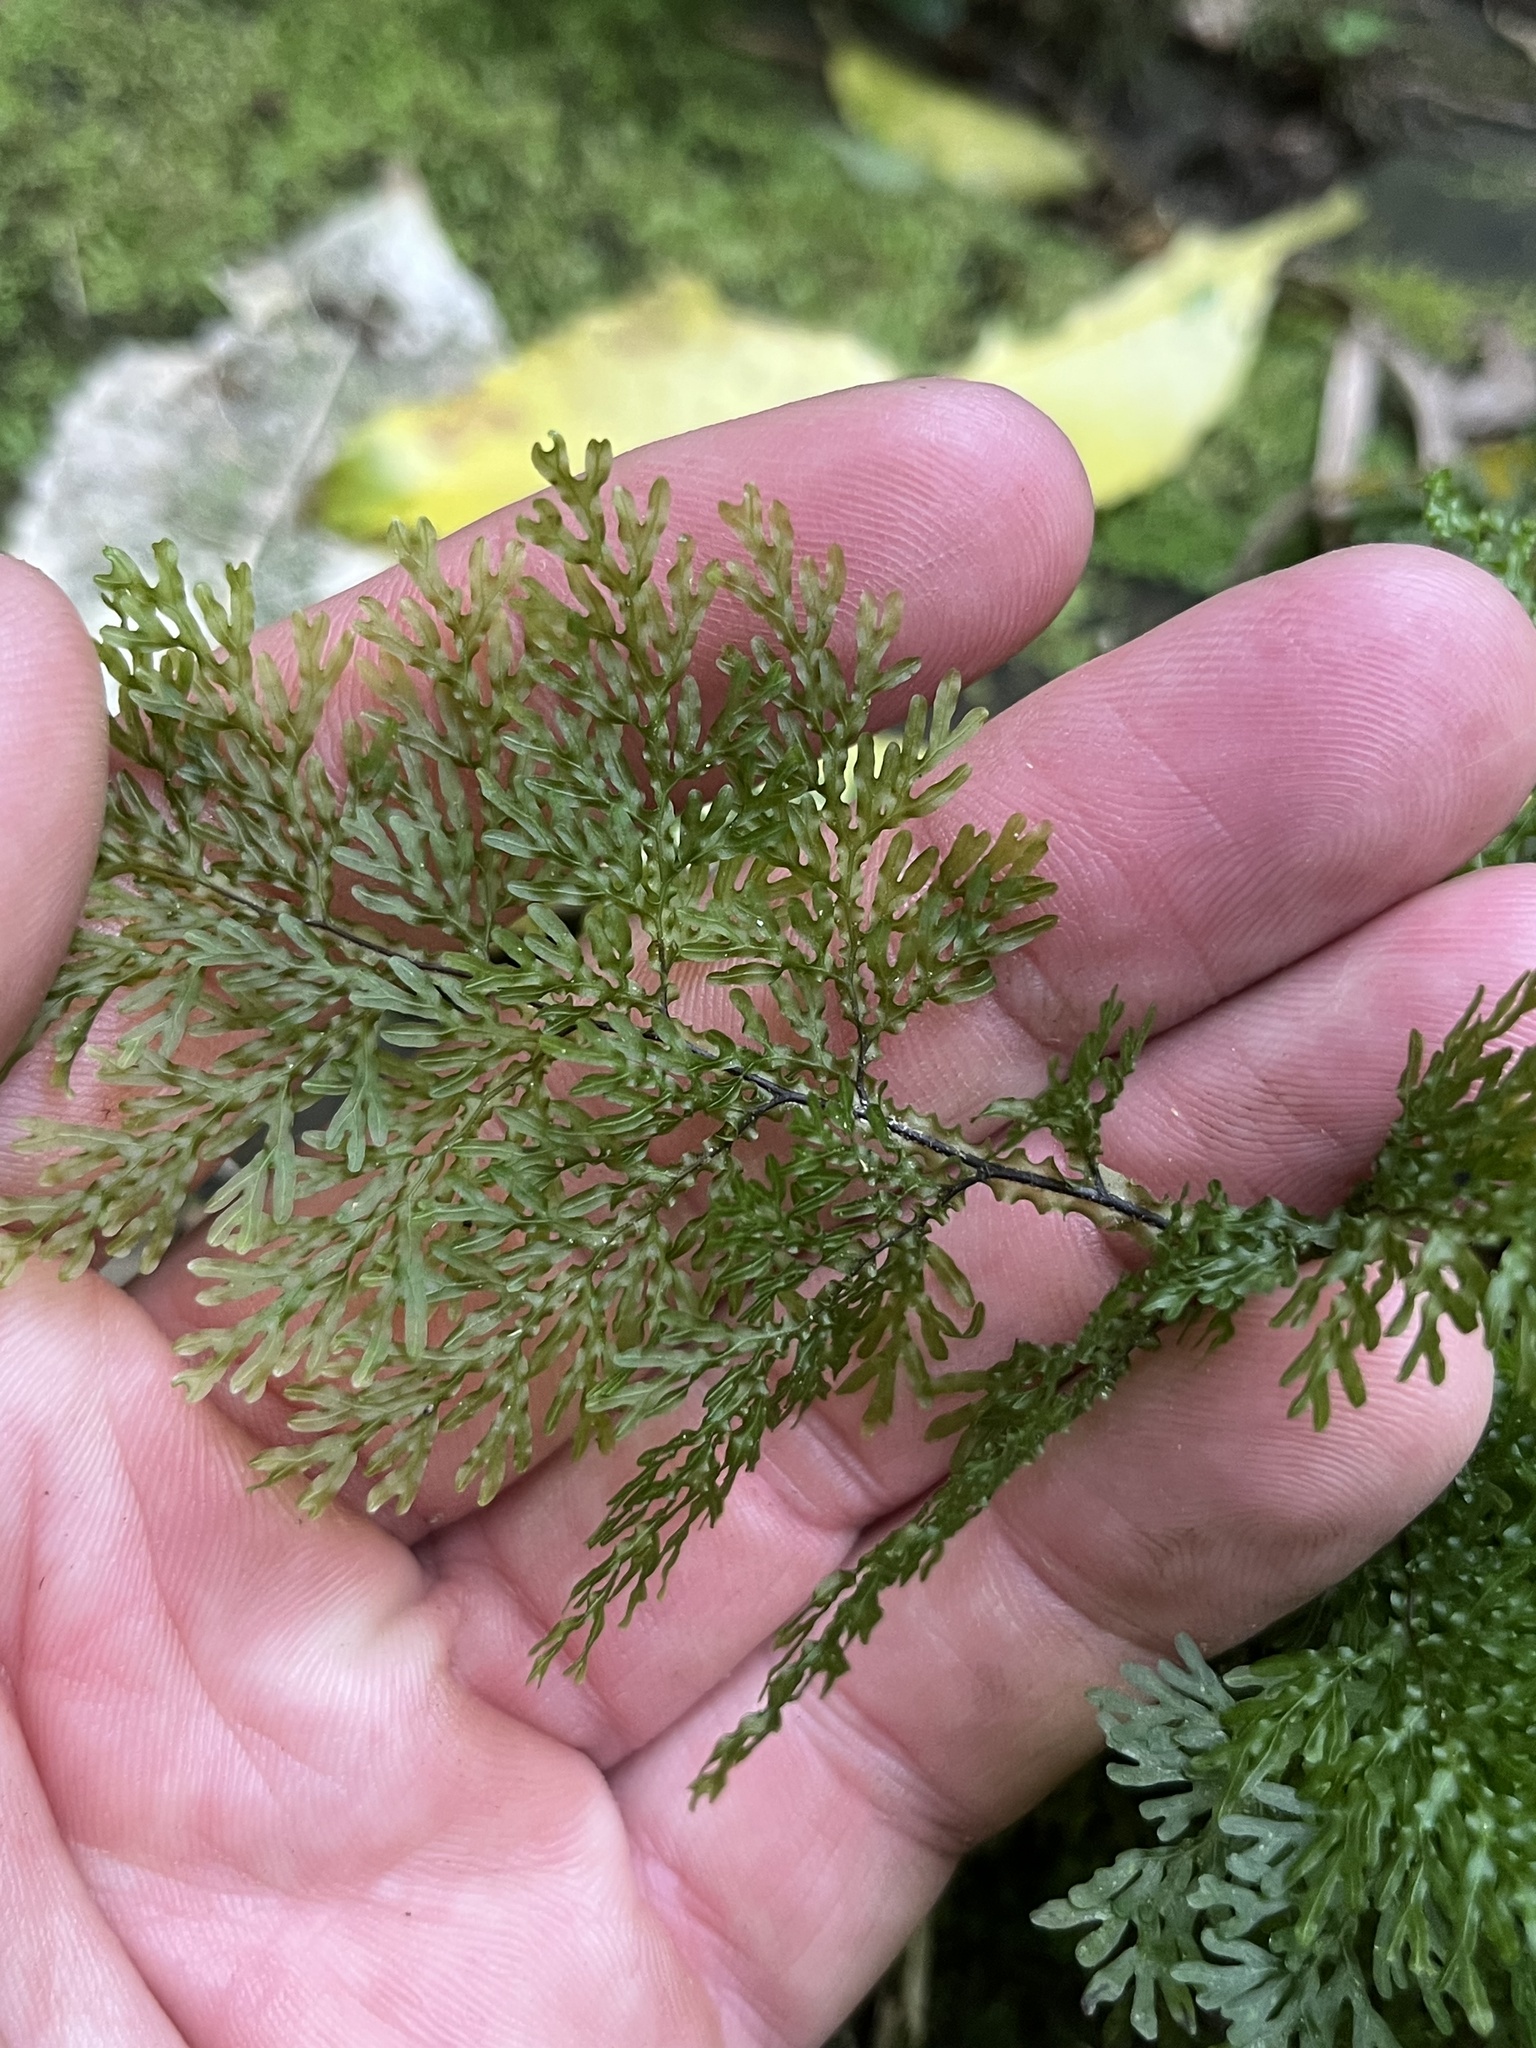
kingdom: Plantae
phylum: Tracheophyta
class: Polypodiopsida
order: Hymenophyllales
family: Hymenophyllaceae
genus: Hymenophyllum
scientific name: Hymenophyllum flexuosum
